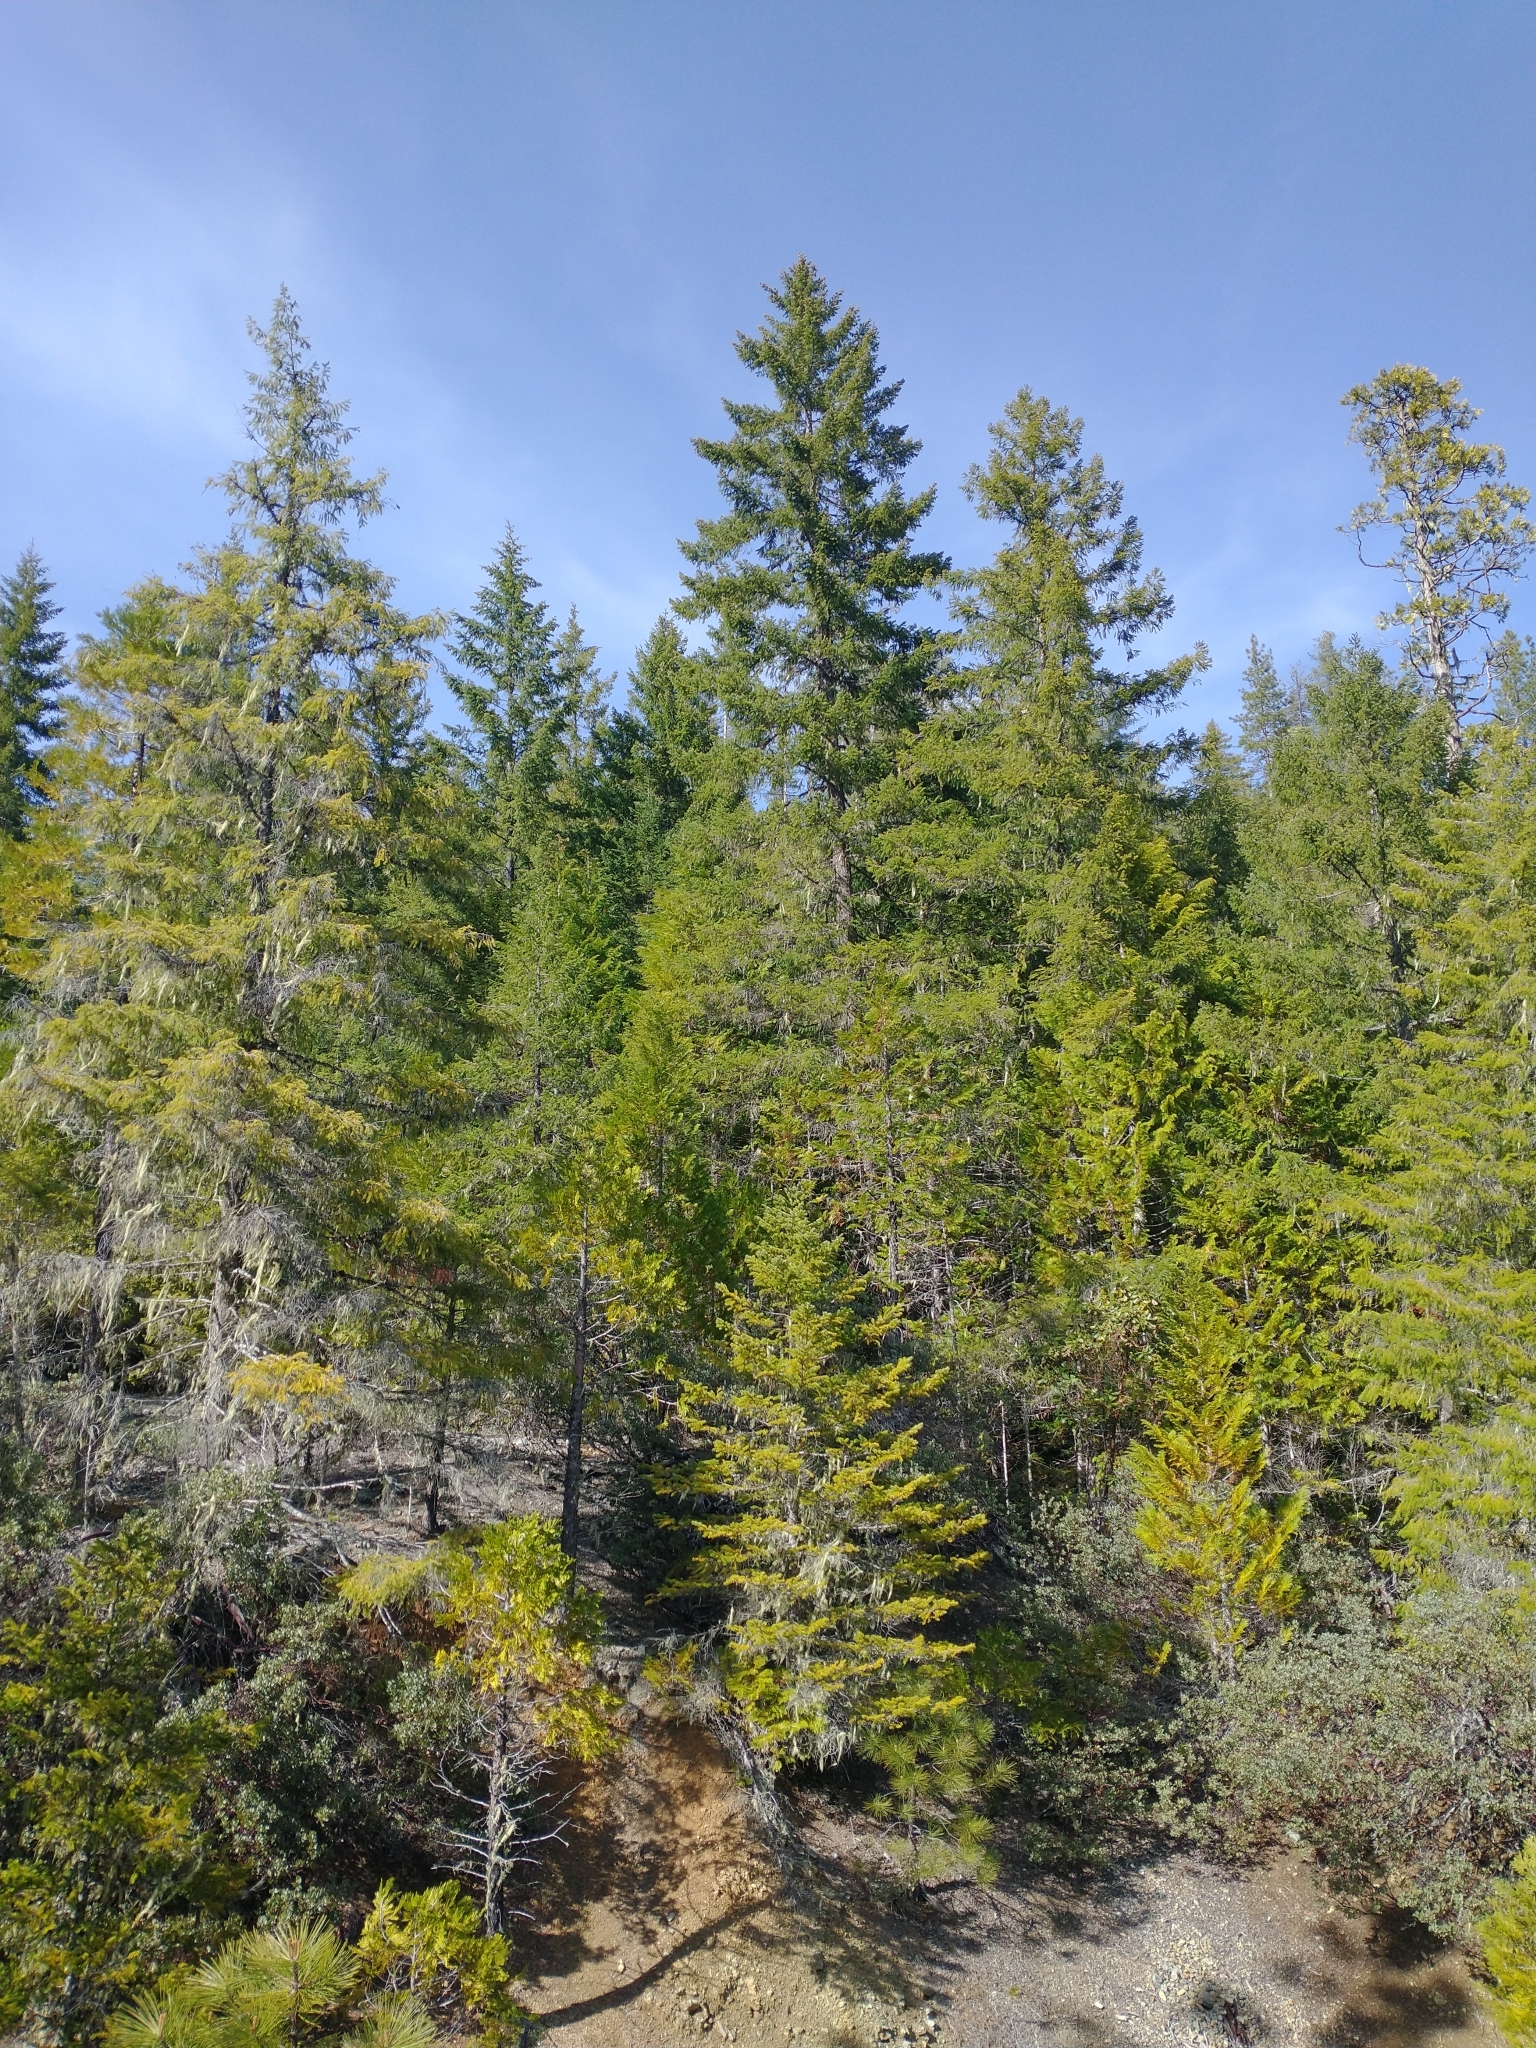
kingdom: Plantae
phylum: Tracheophyta
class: Pinopsida
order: Pinales
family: Pinaceae
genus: Pseudotsuga
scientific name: Pseudotsuga menziesii
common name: Douglas fir
